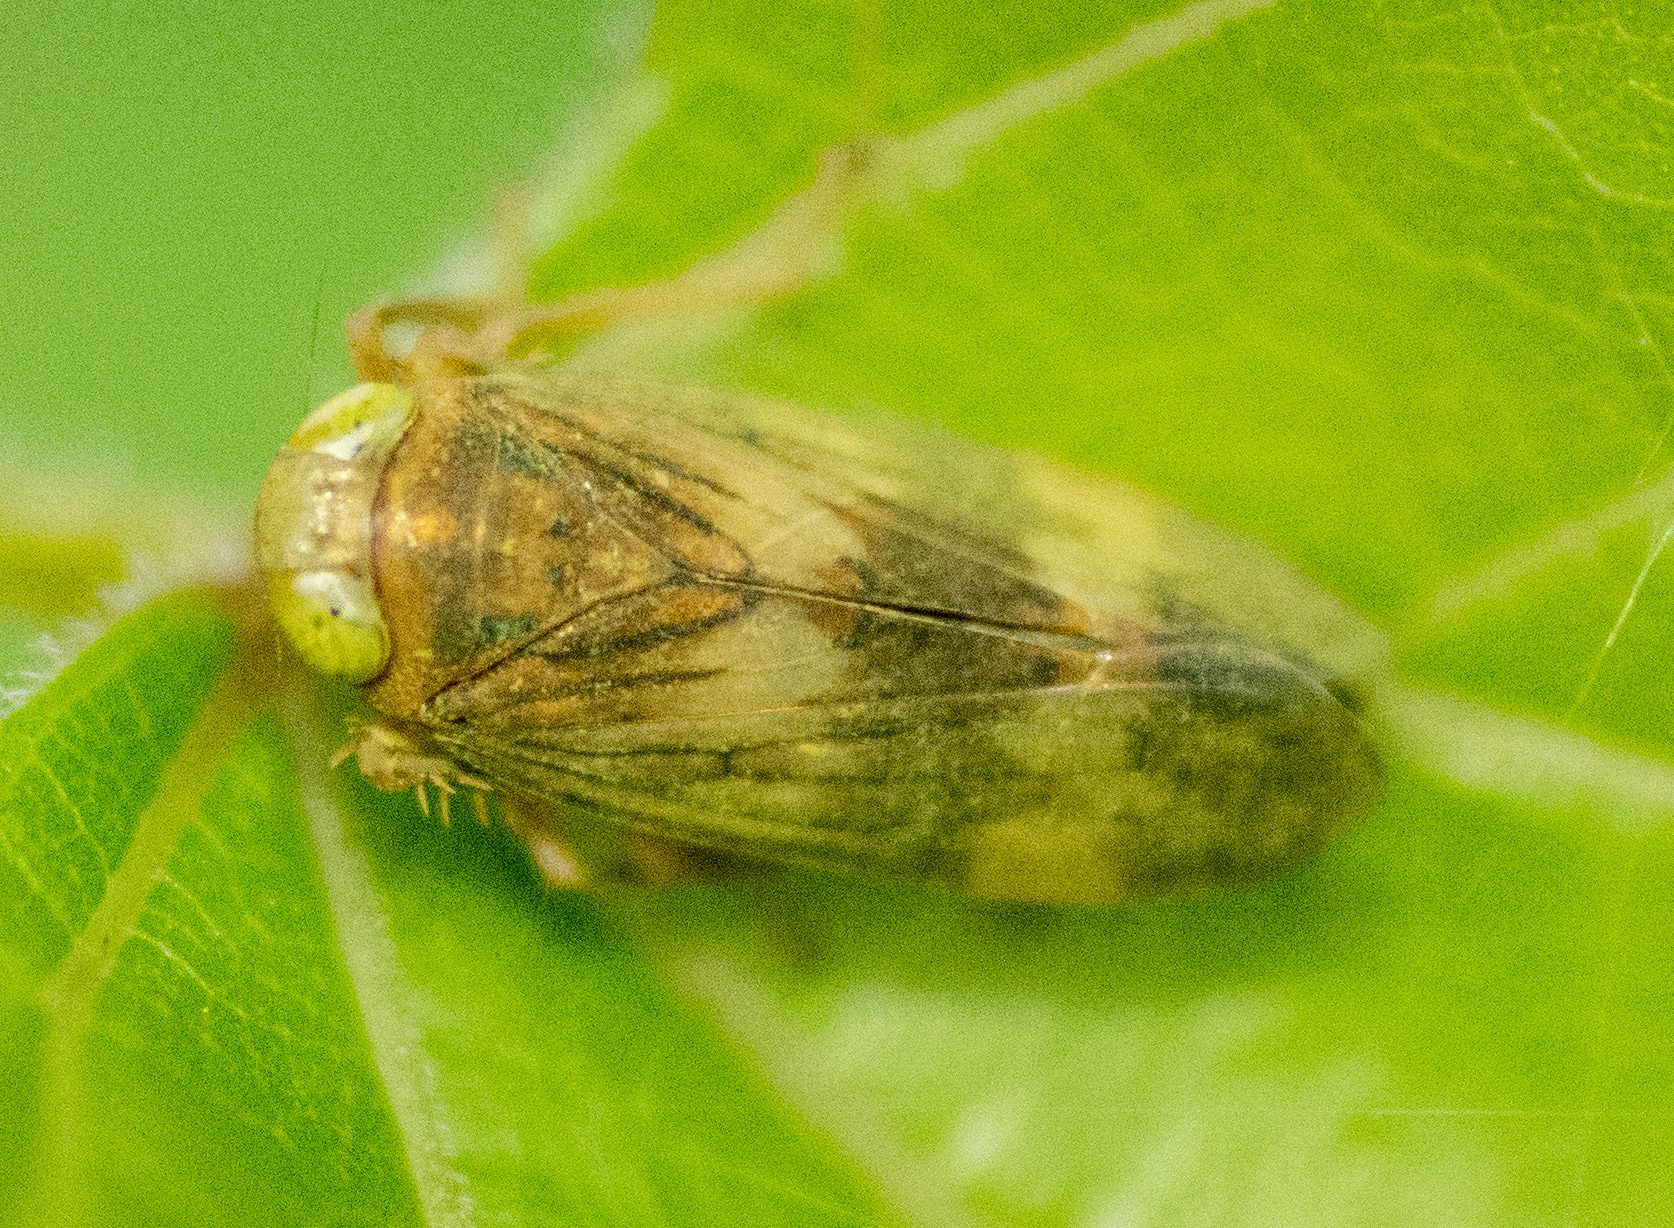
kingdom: Animalia
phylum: Arthropoda
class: Insecta
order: Hemiptera
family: Cicadellidae
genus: Jikradia
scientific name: Jikradia olitoria
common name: Coppery leafhopper
